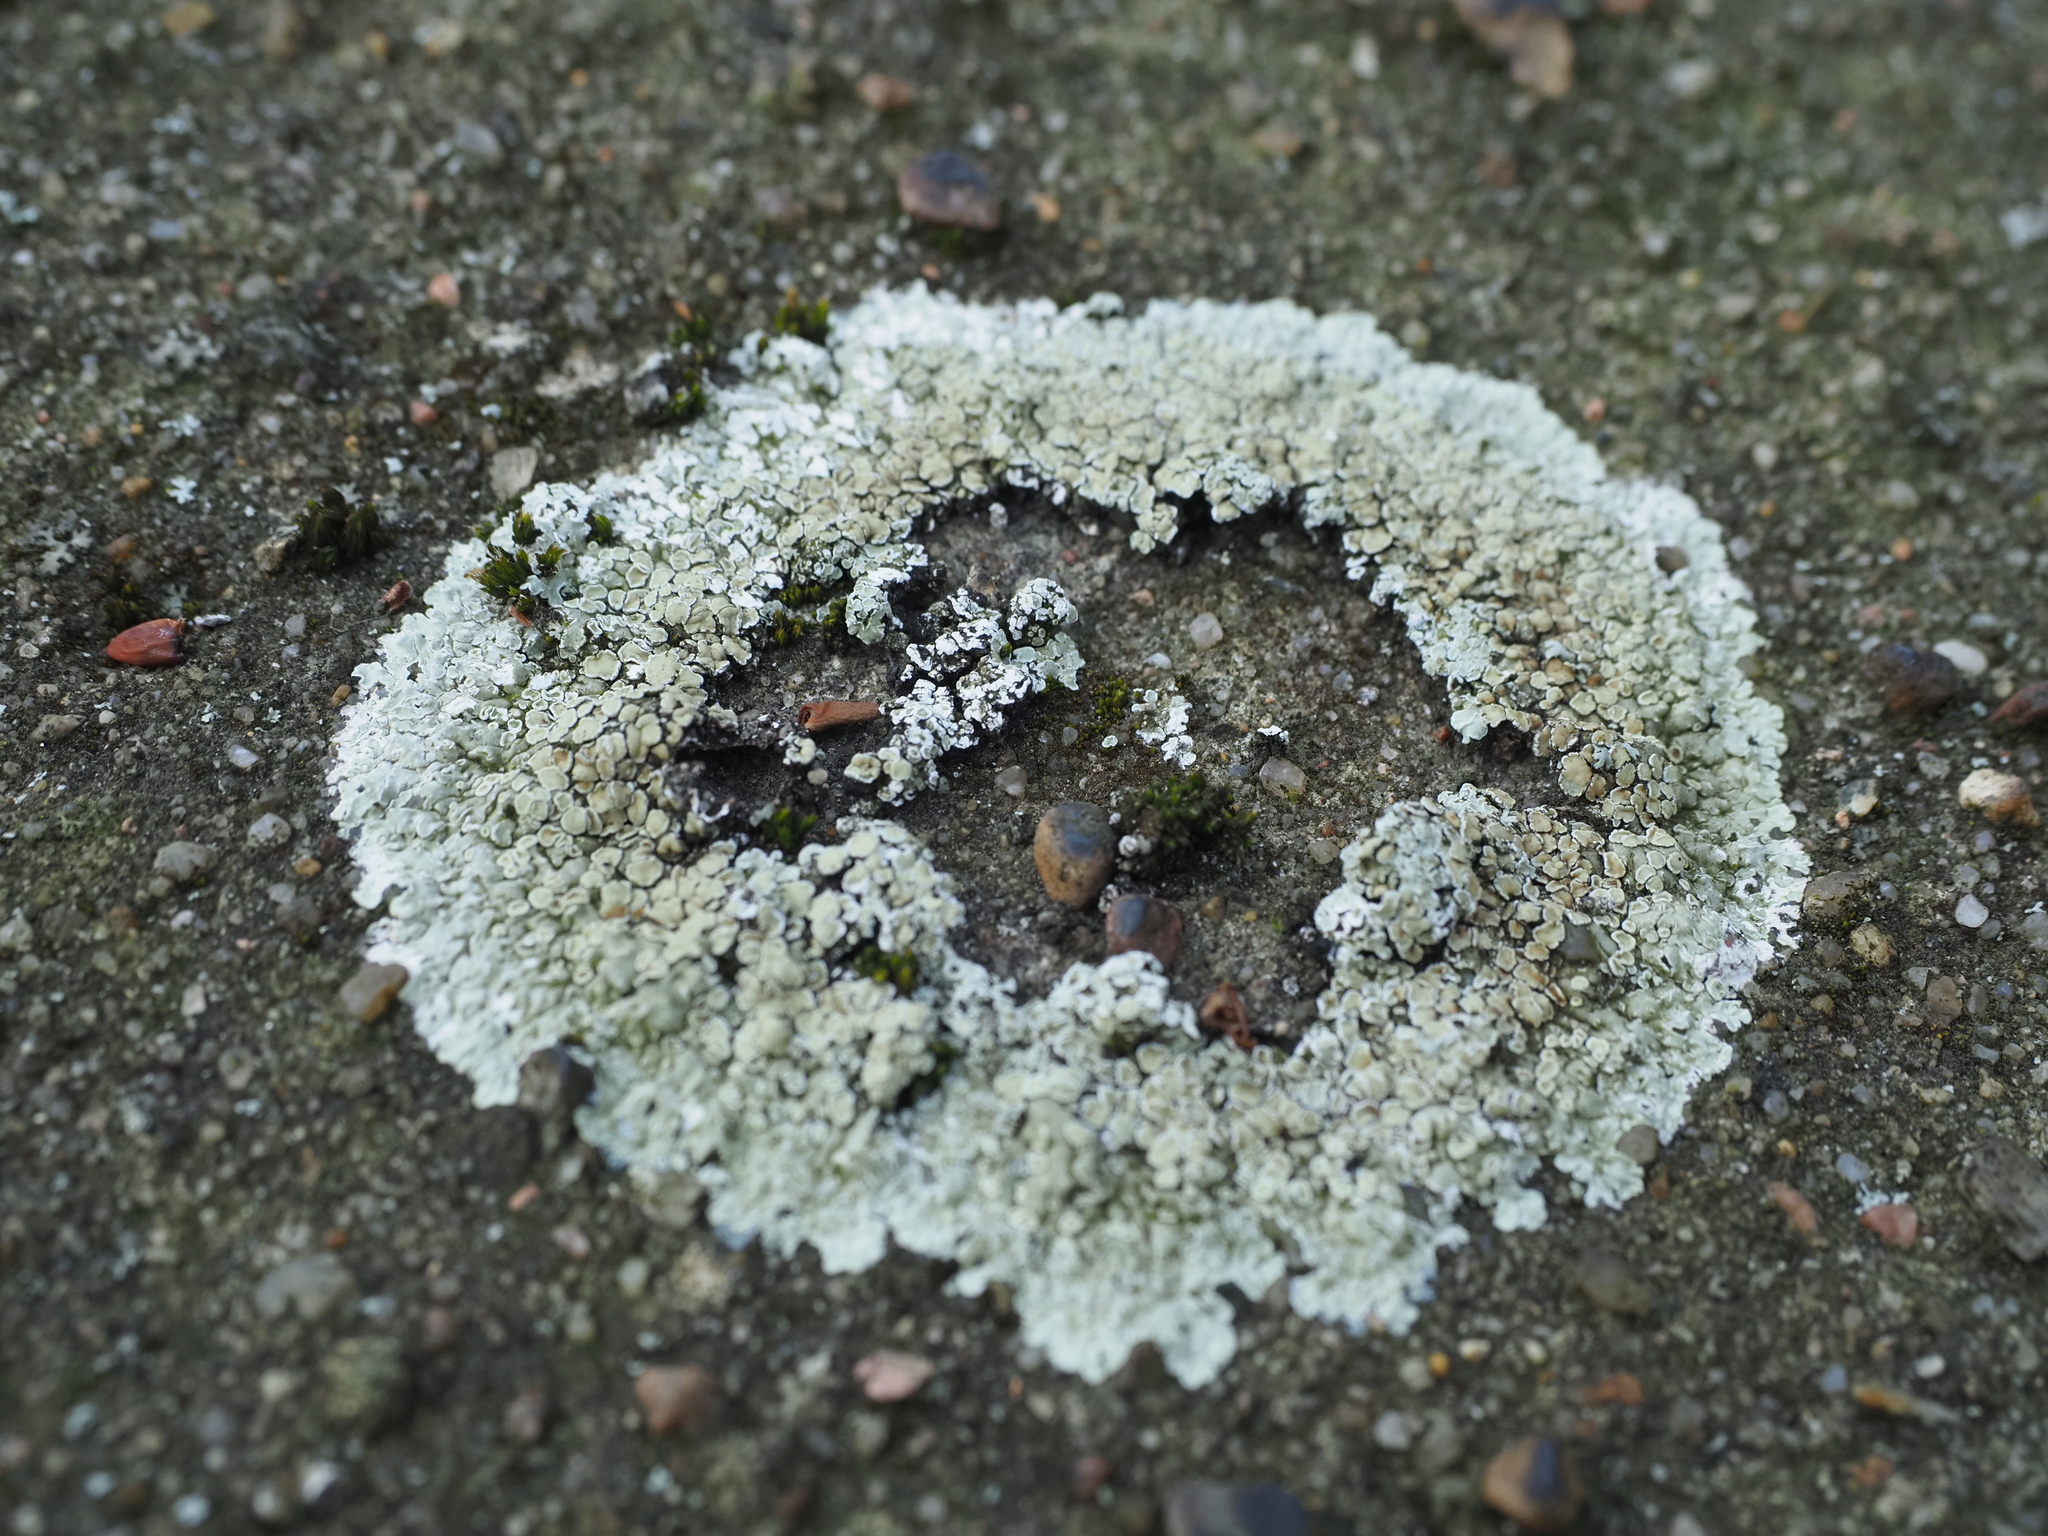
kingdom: Fungi
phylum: Ascomycota
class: Lecanoromycetes
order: Lecanorales
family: Lecanoraceae
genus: Protoparmeliopsis
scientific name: Protoparmeliopsis muralis
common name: Stonewall rim lichen
